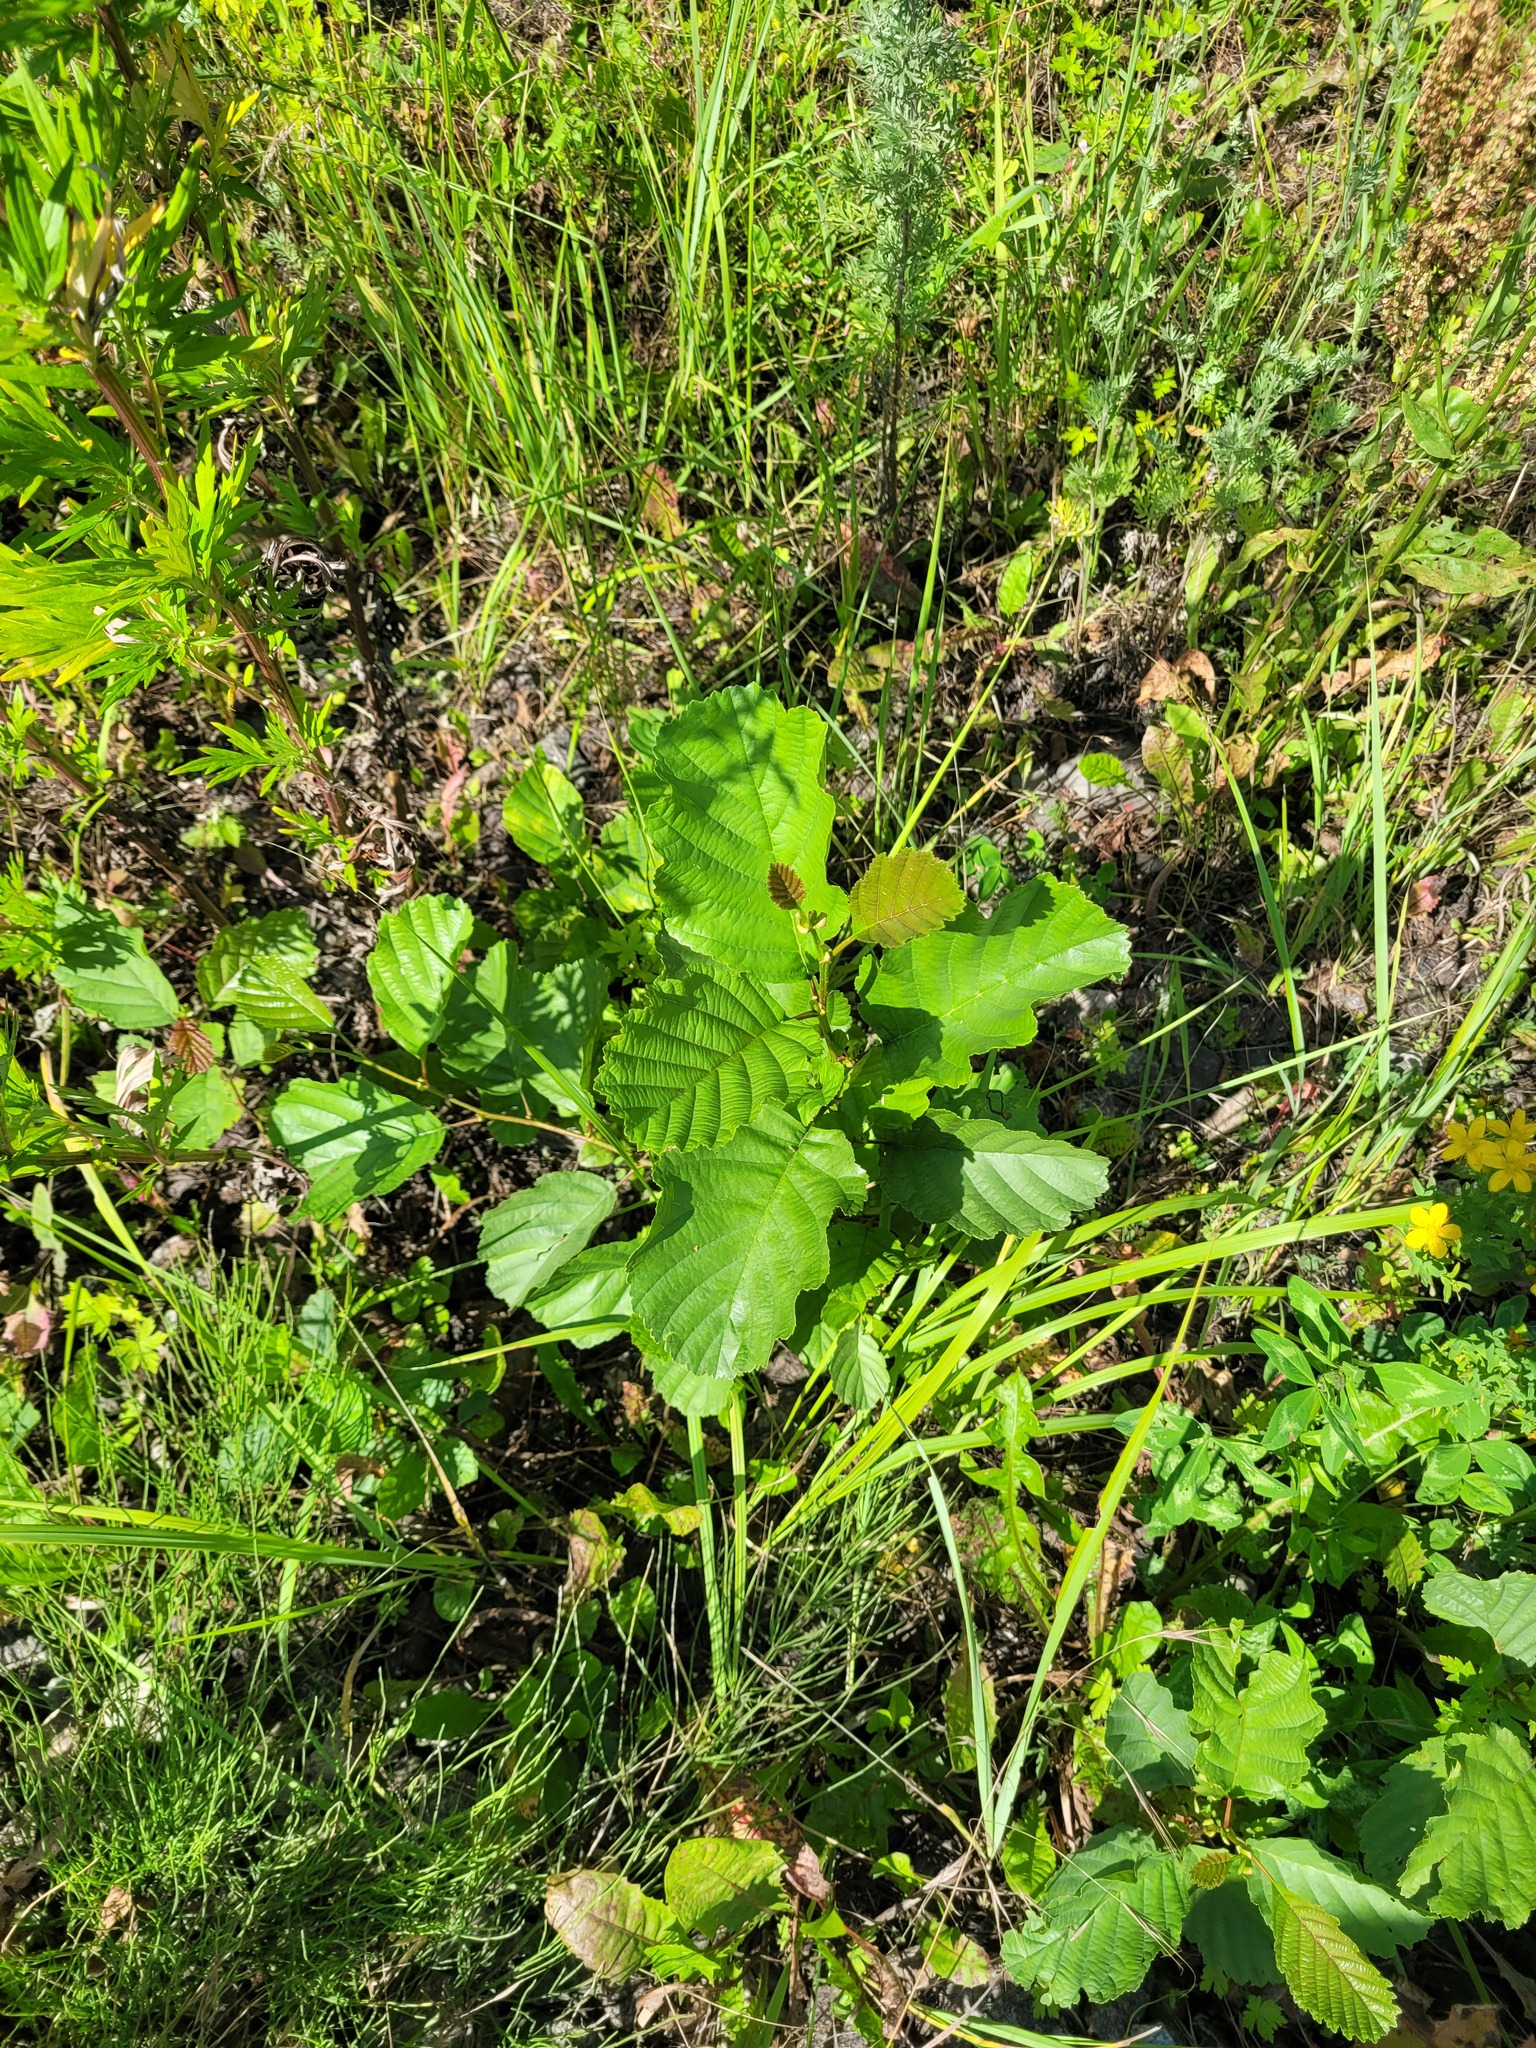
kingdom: Plantae
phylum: Tracheophyta
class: Magnoliopsida
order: Fagales
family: Betulaceae
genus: Alnus
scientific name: Alnus glutinosa
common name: Black alder
